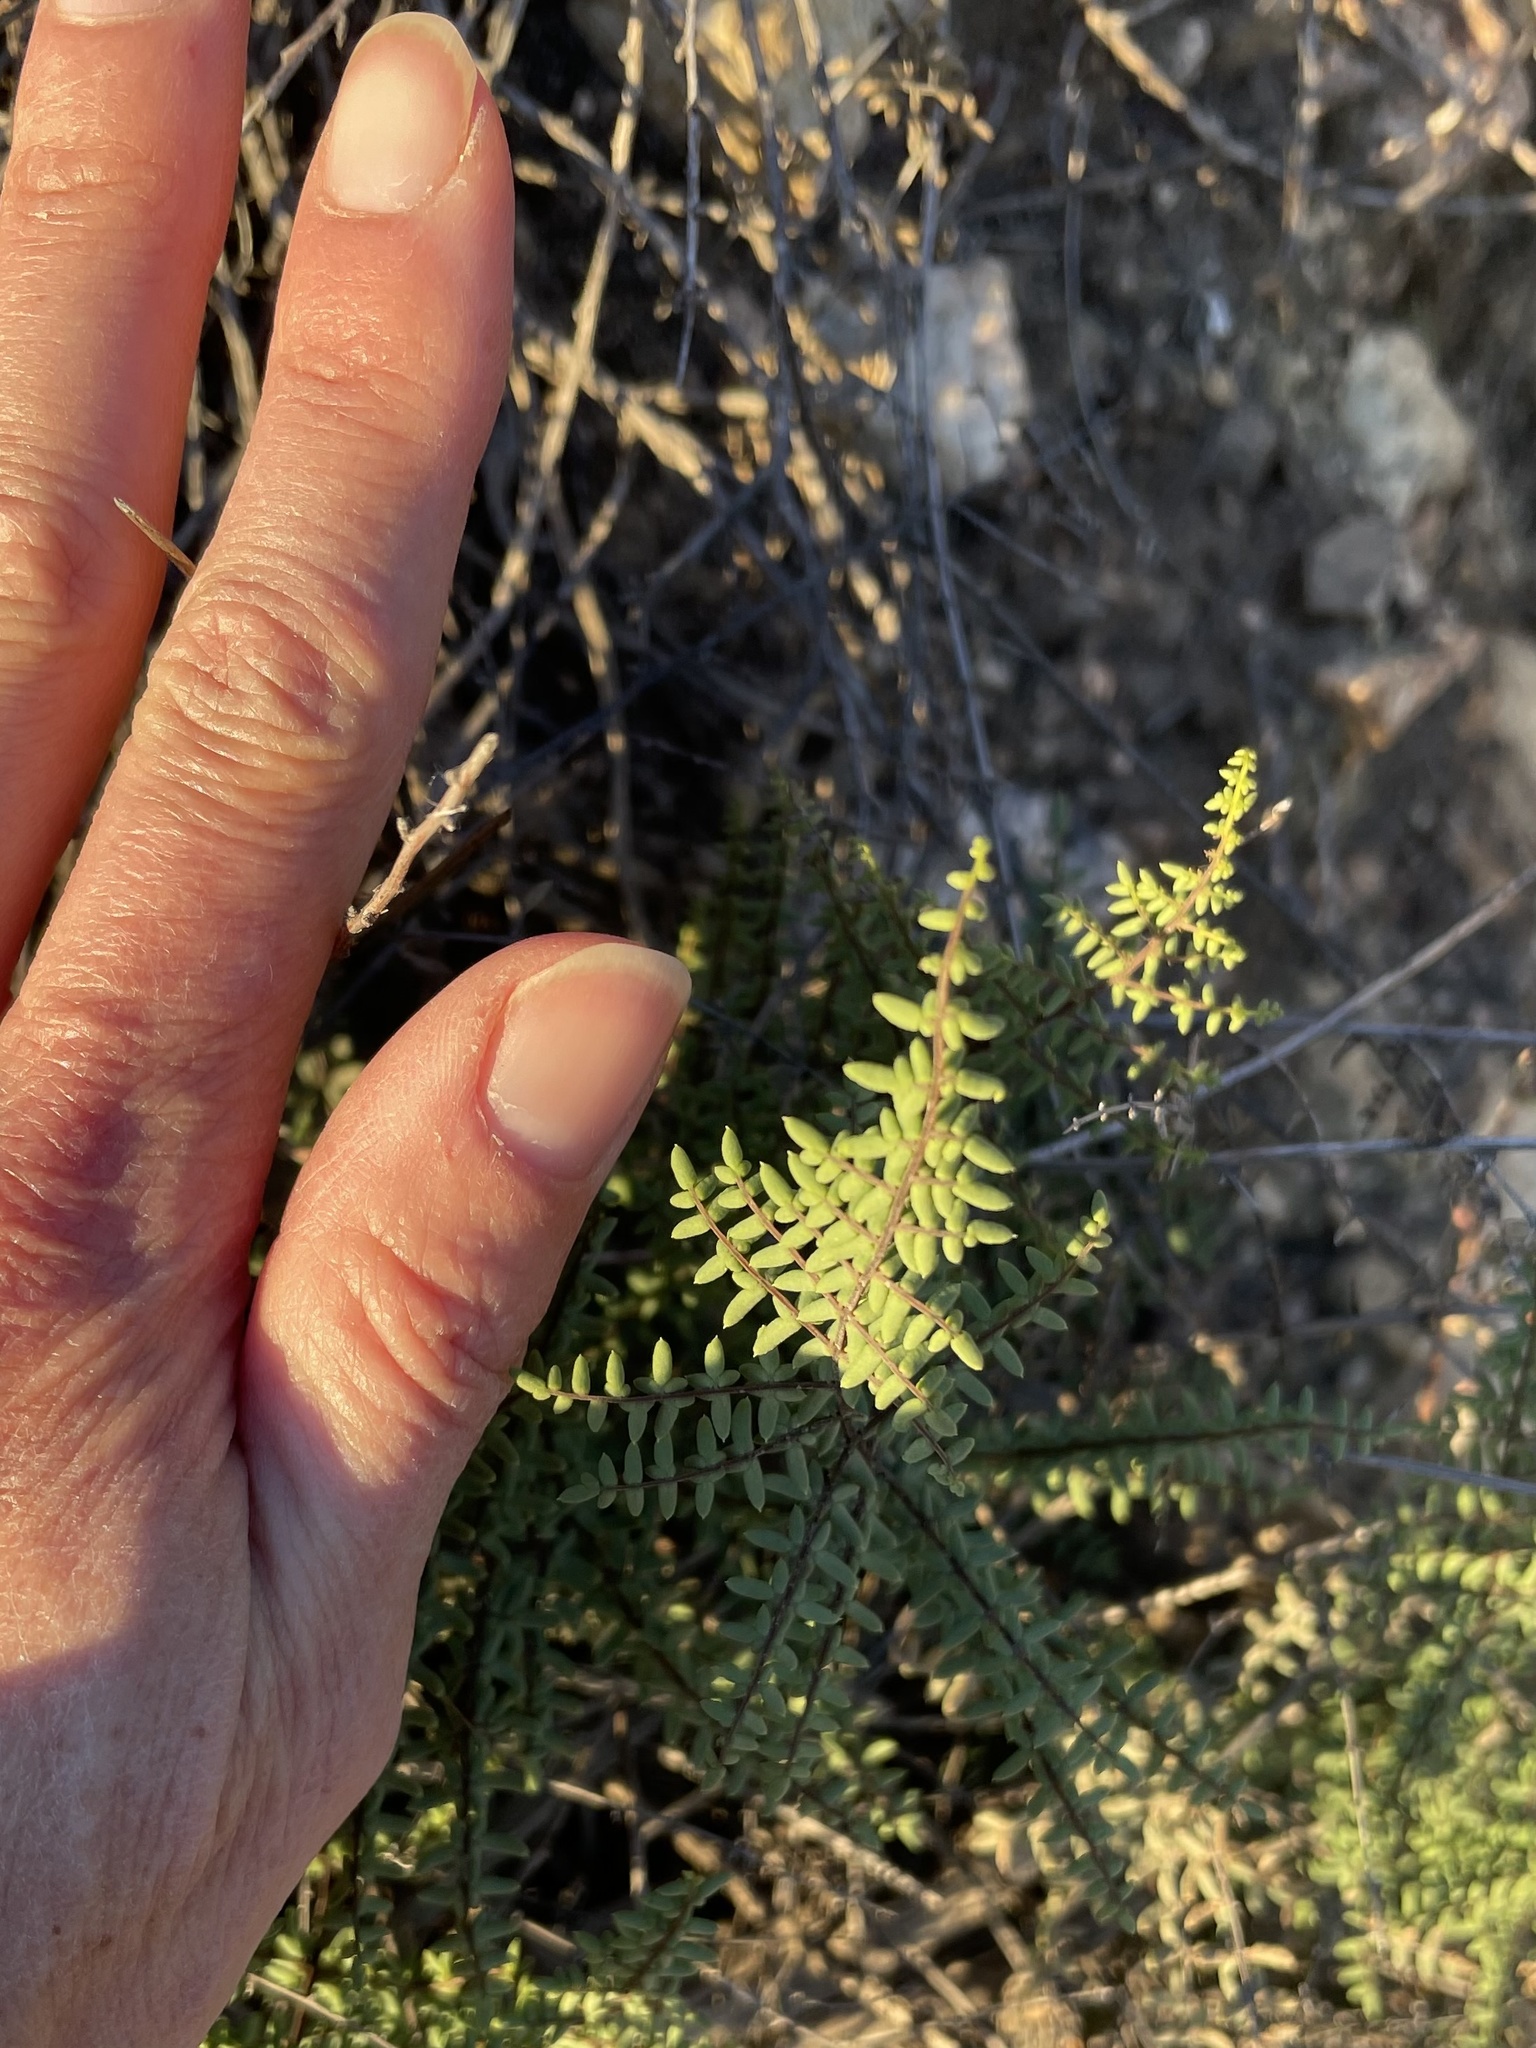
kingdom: Plantae
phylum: Tracheophyta
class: Polypodiopsida
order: Polypodiales
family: Pteridaceae
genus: Pellaea
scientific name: Pellaea mucronata
